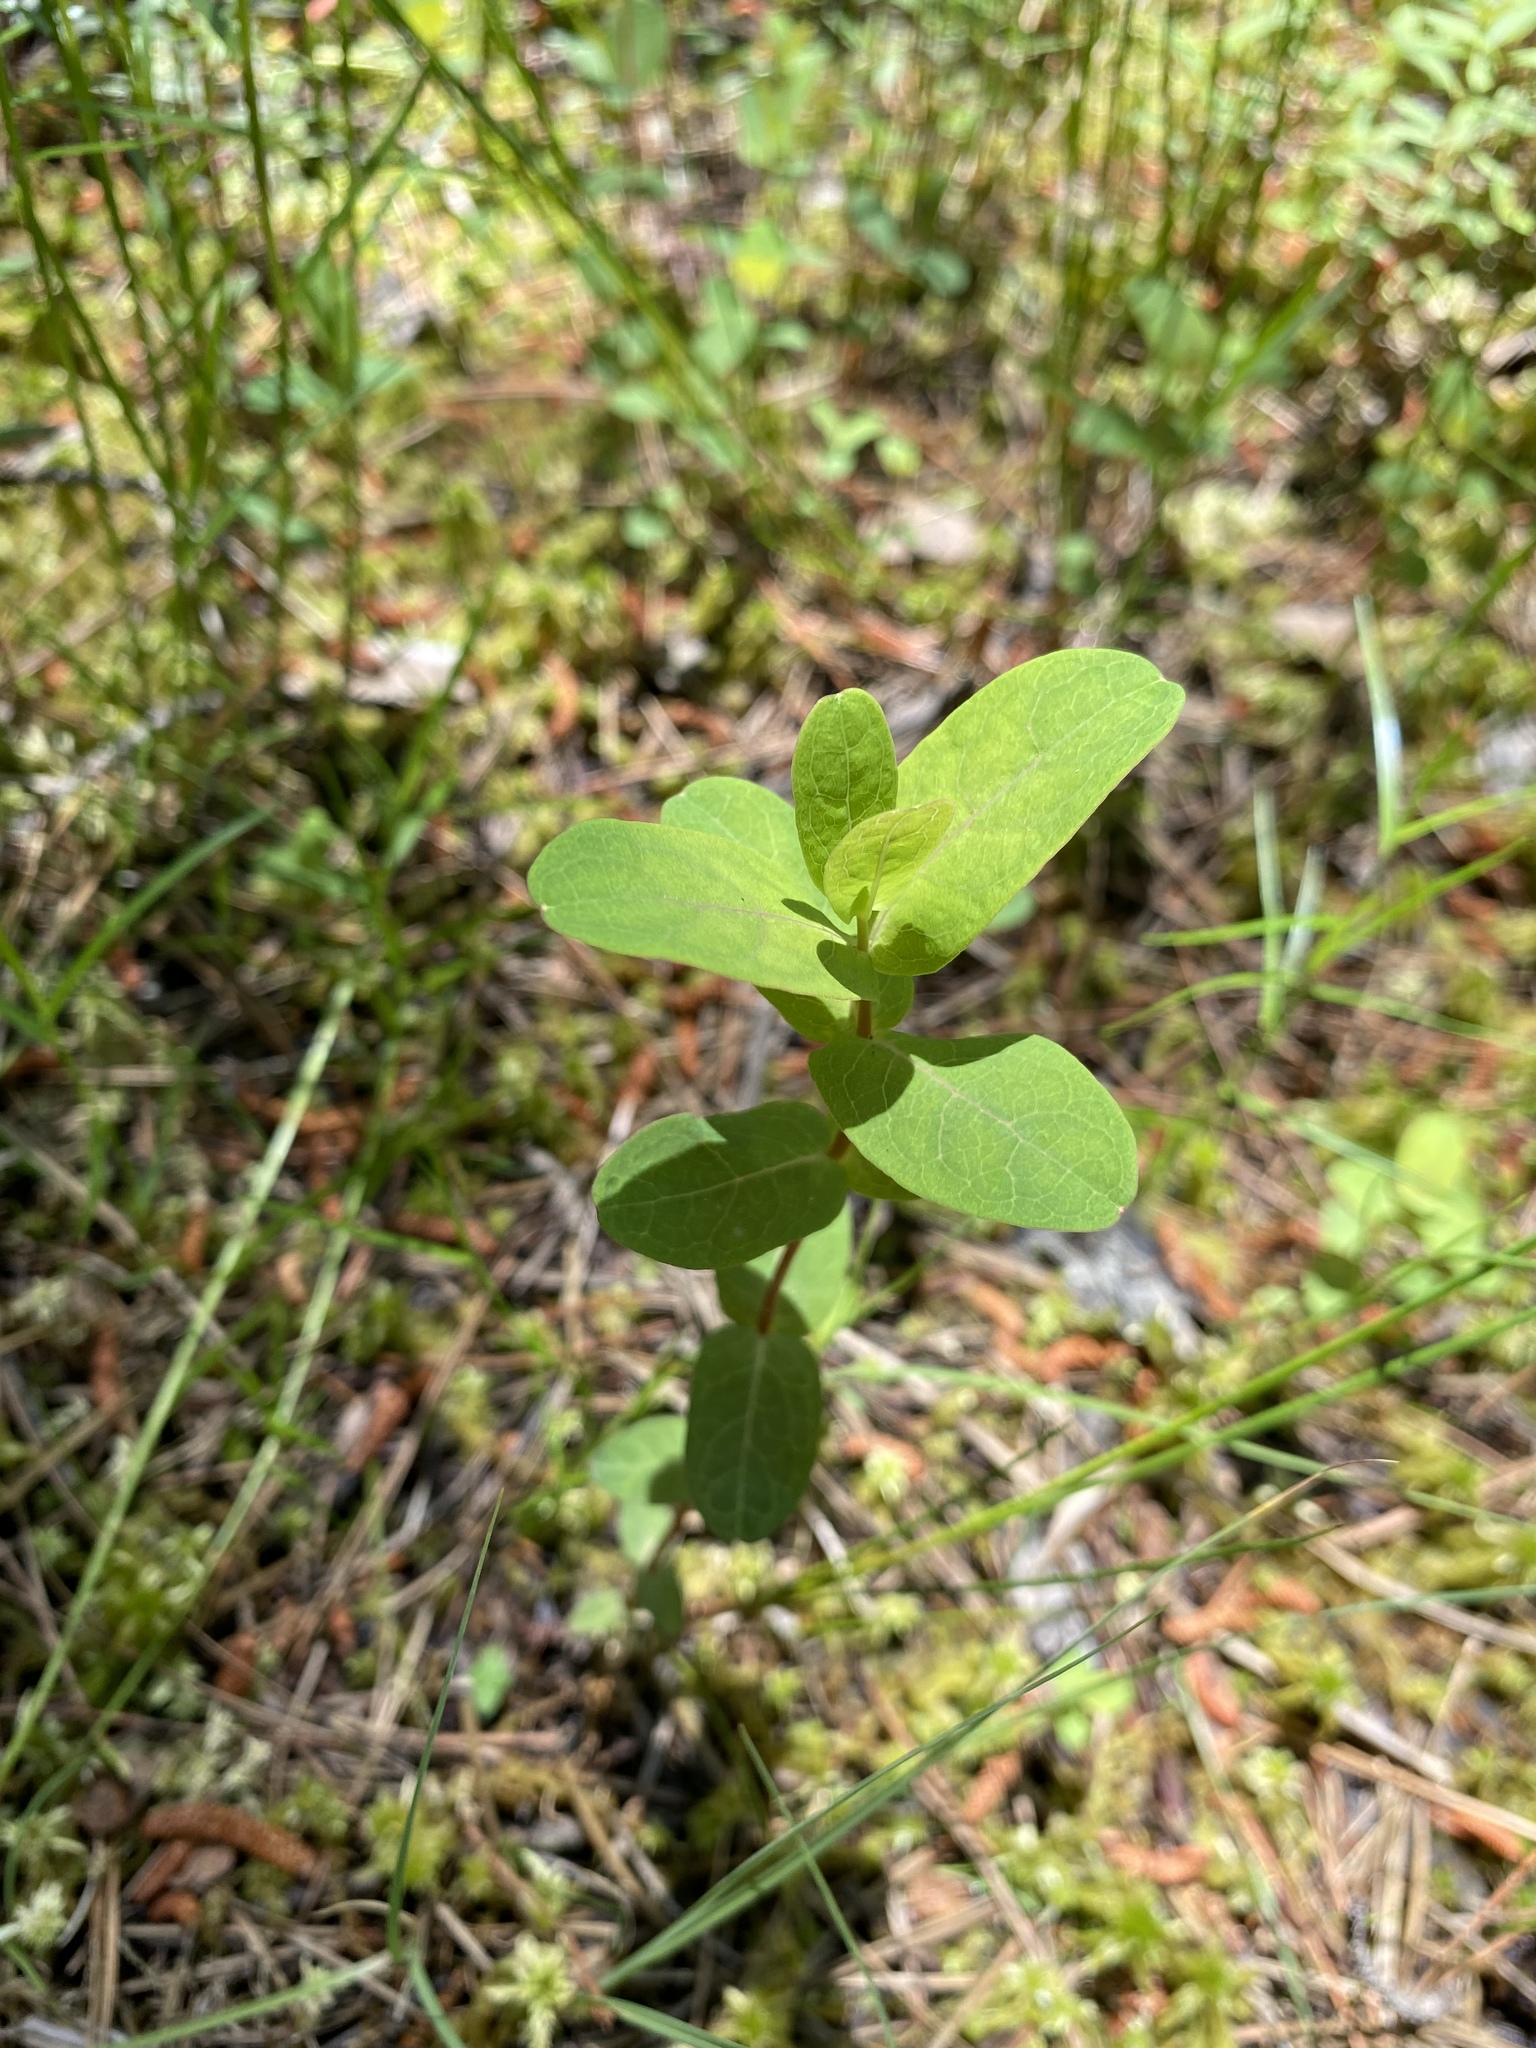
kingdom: Plantae
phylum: Tracheophyta
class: Magnoliopsida
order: Malpighiales
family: Hypericaceae
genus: Triadenum
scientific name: Triadenum virginicum
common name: Marsh st. john's-wort
